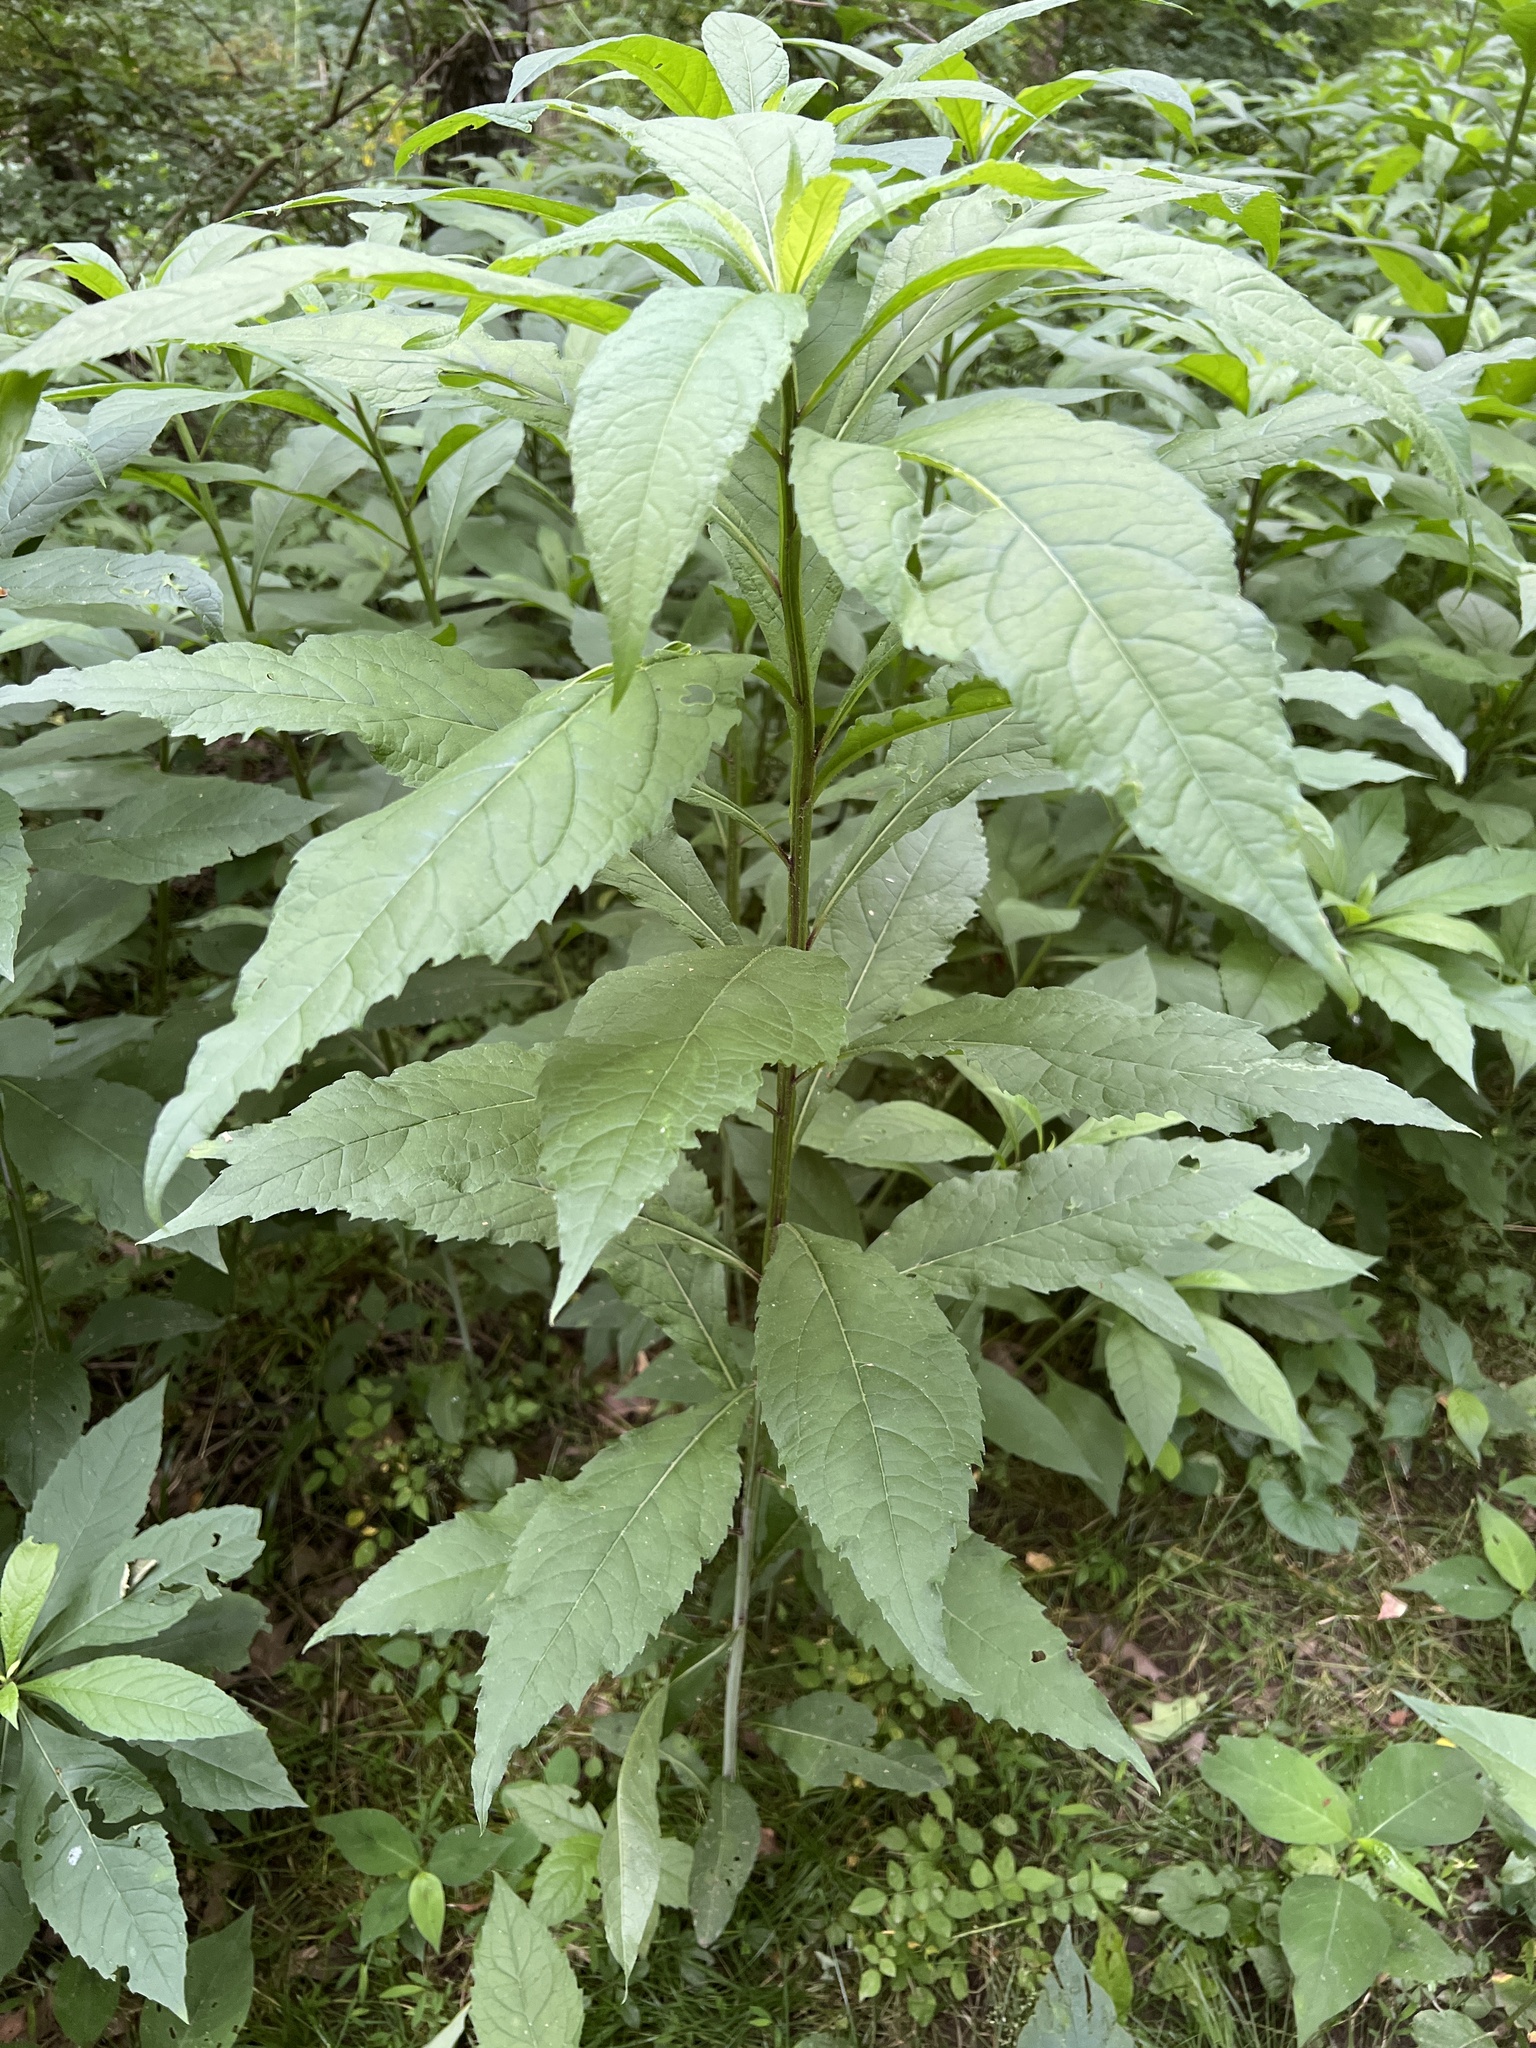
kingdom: Plantae
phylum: Tracheophyta
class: Magnoliopsida
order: Asterales
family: Asteraceae
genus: Verbesina
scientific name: Verbesina alternifolia
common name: Wingstem
